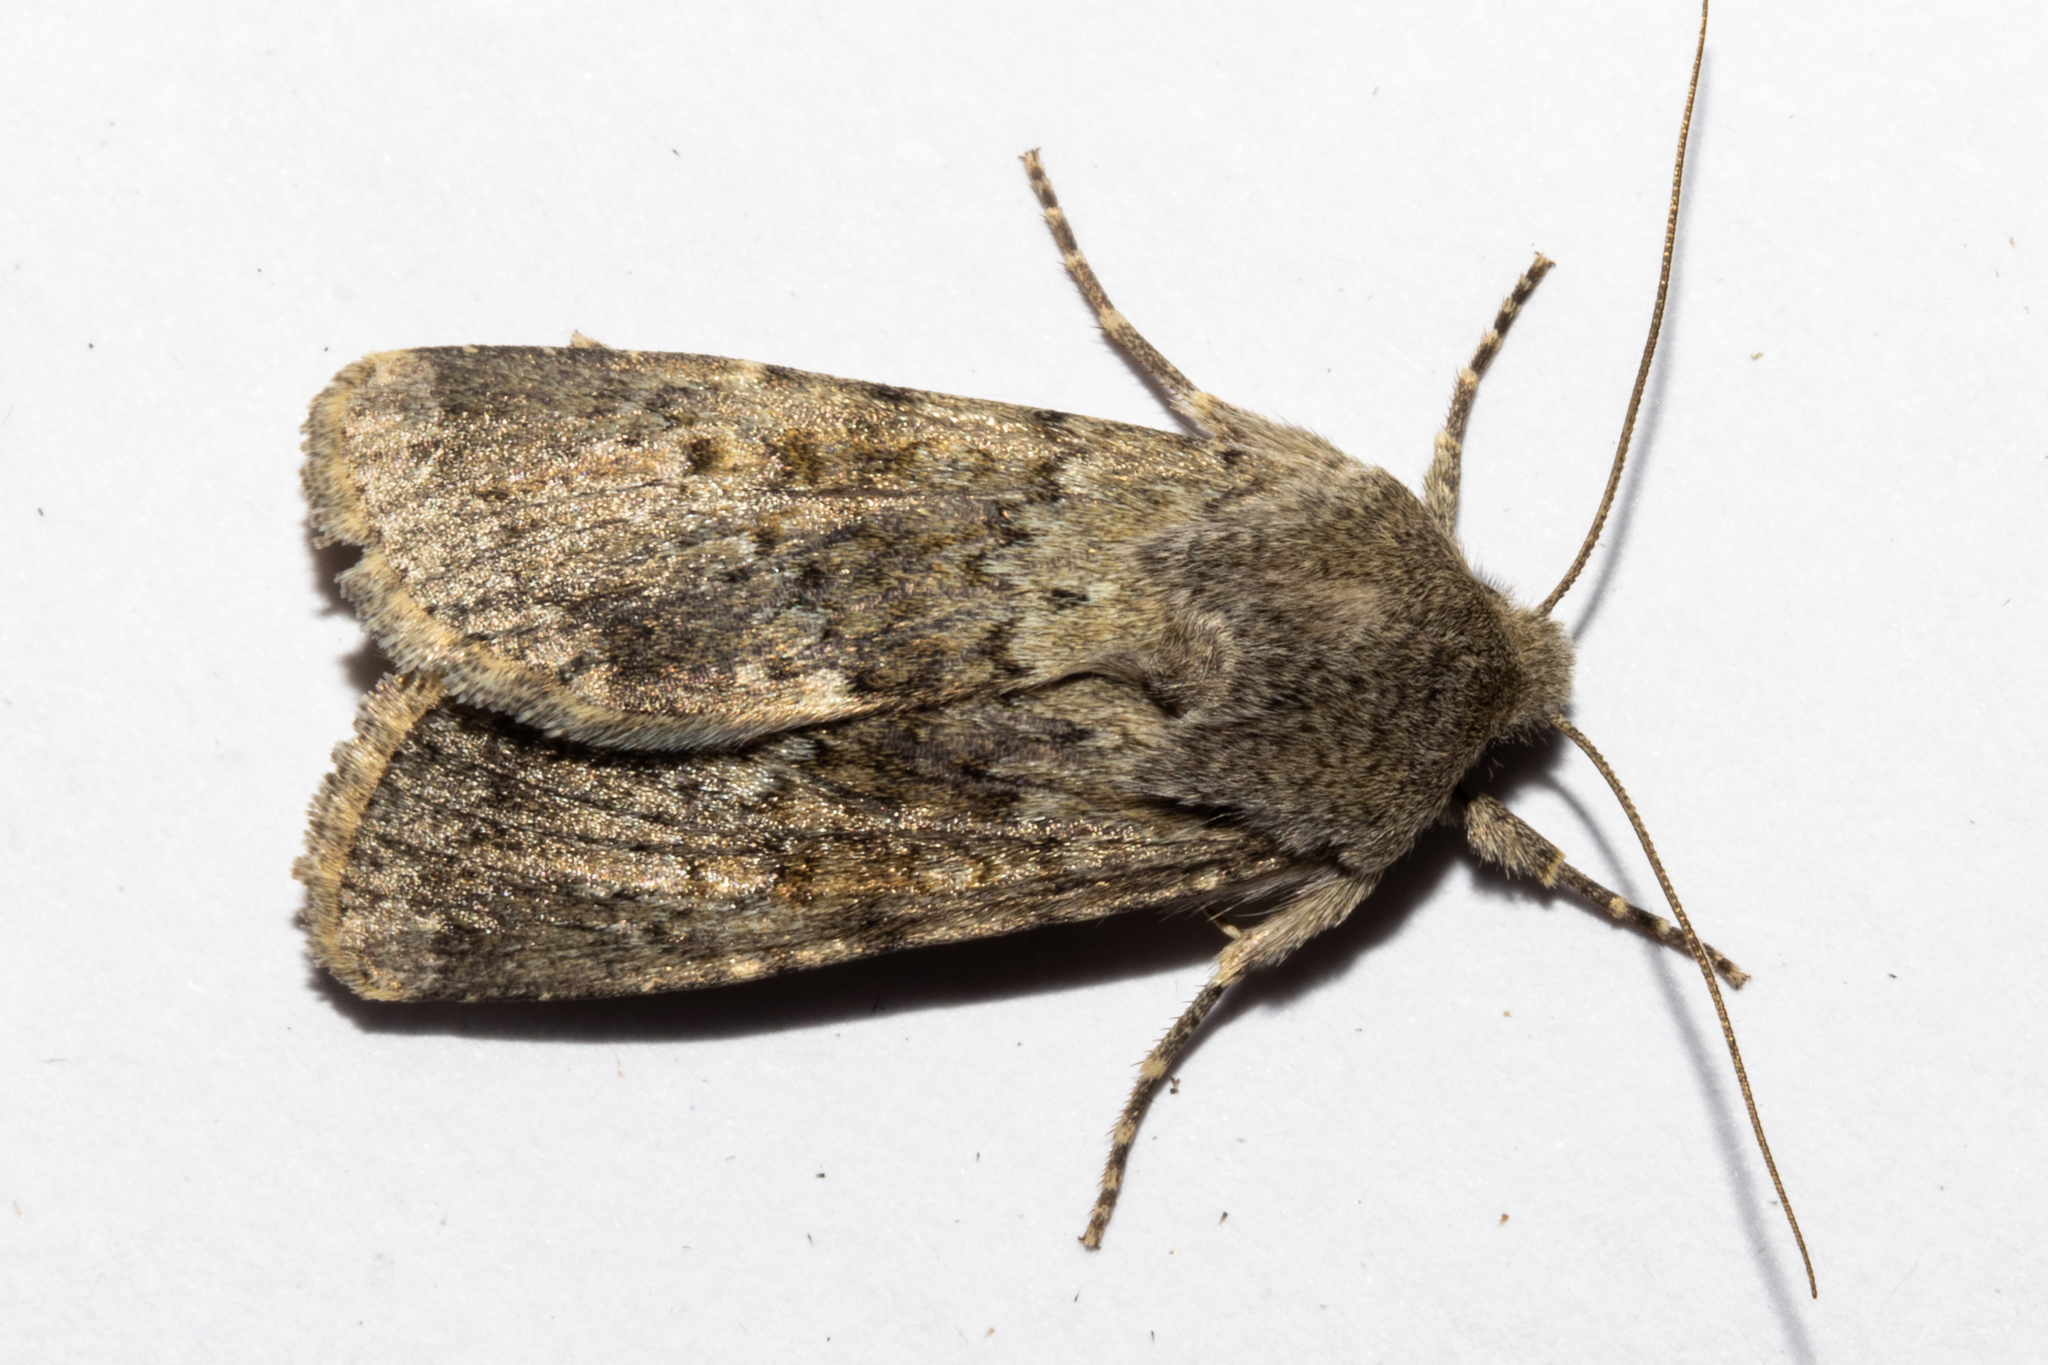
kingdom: Animalia
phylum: Arthropoda
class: Insecta
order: Lepidoptera
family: Noctuidae
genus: Ichneutica
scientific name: Ichneutica moderata
